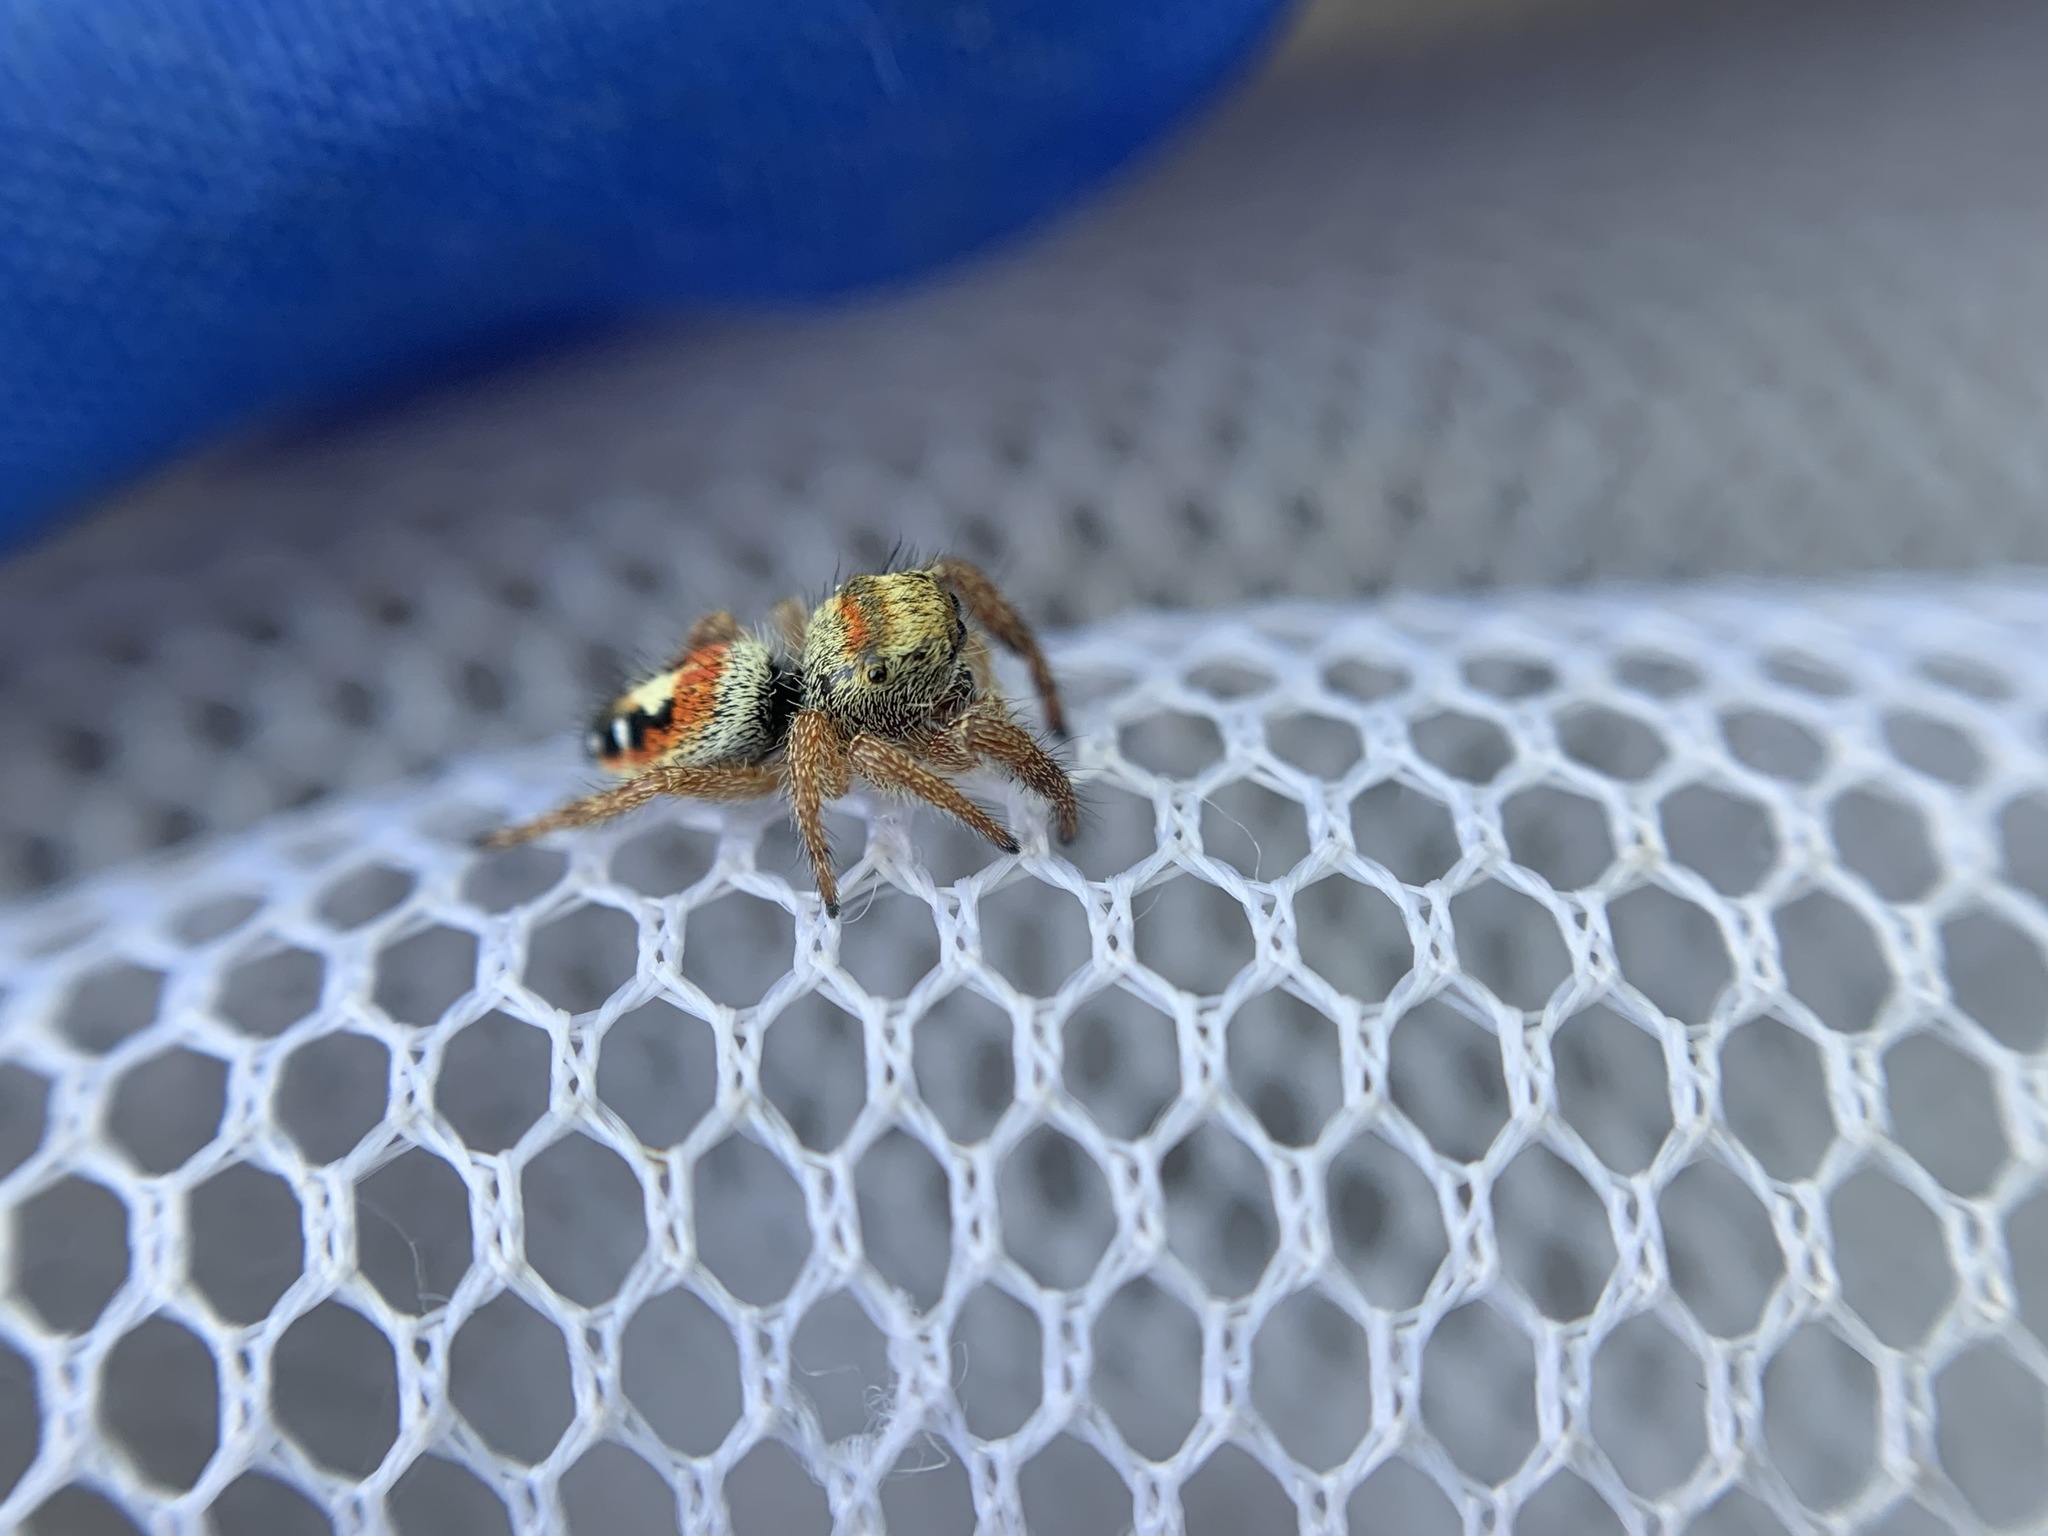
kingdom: Animalia
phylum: Arthropoda
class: Arachnida
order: Araneae
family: Salticidae
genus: Phidippus
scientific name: Phidippus californicus
